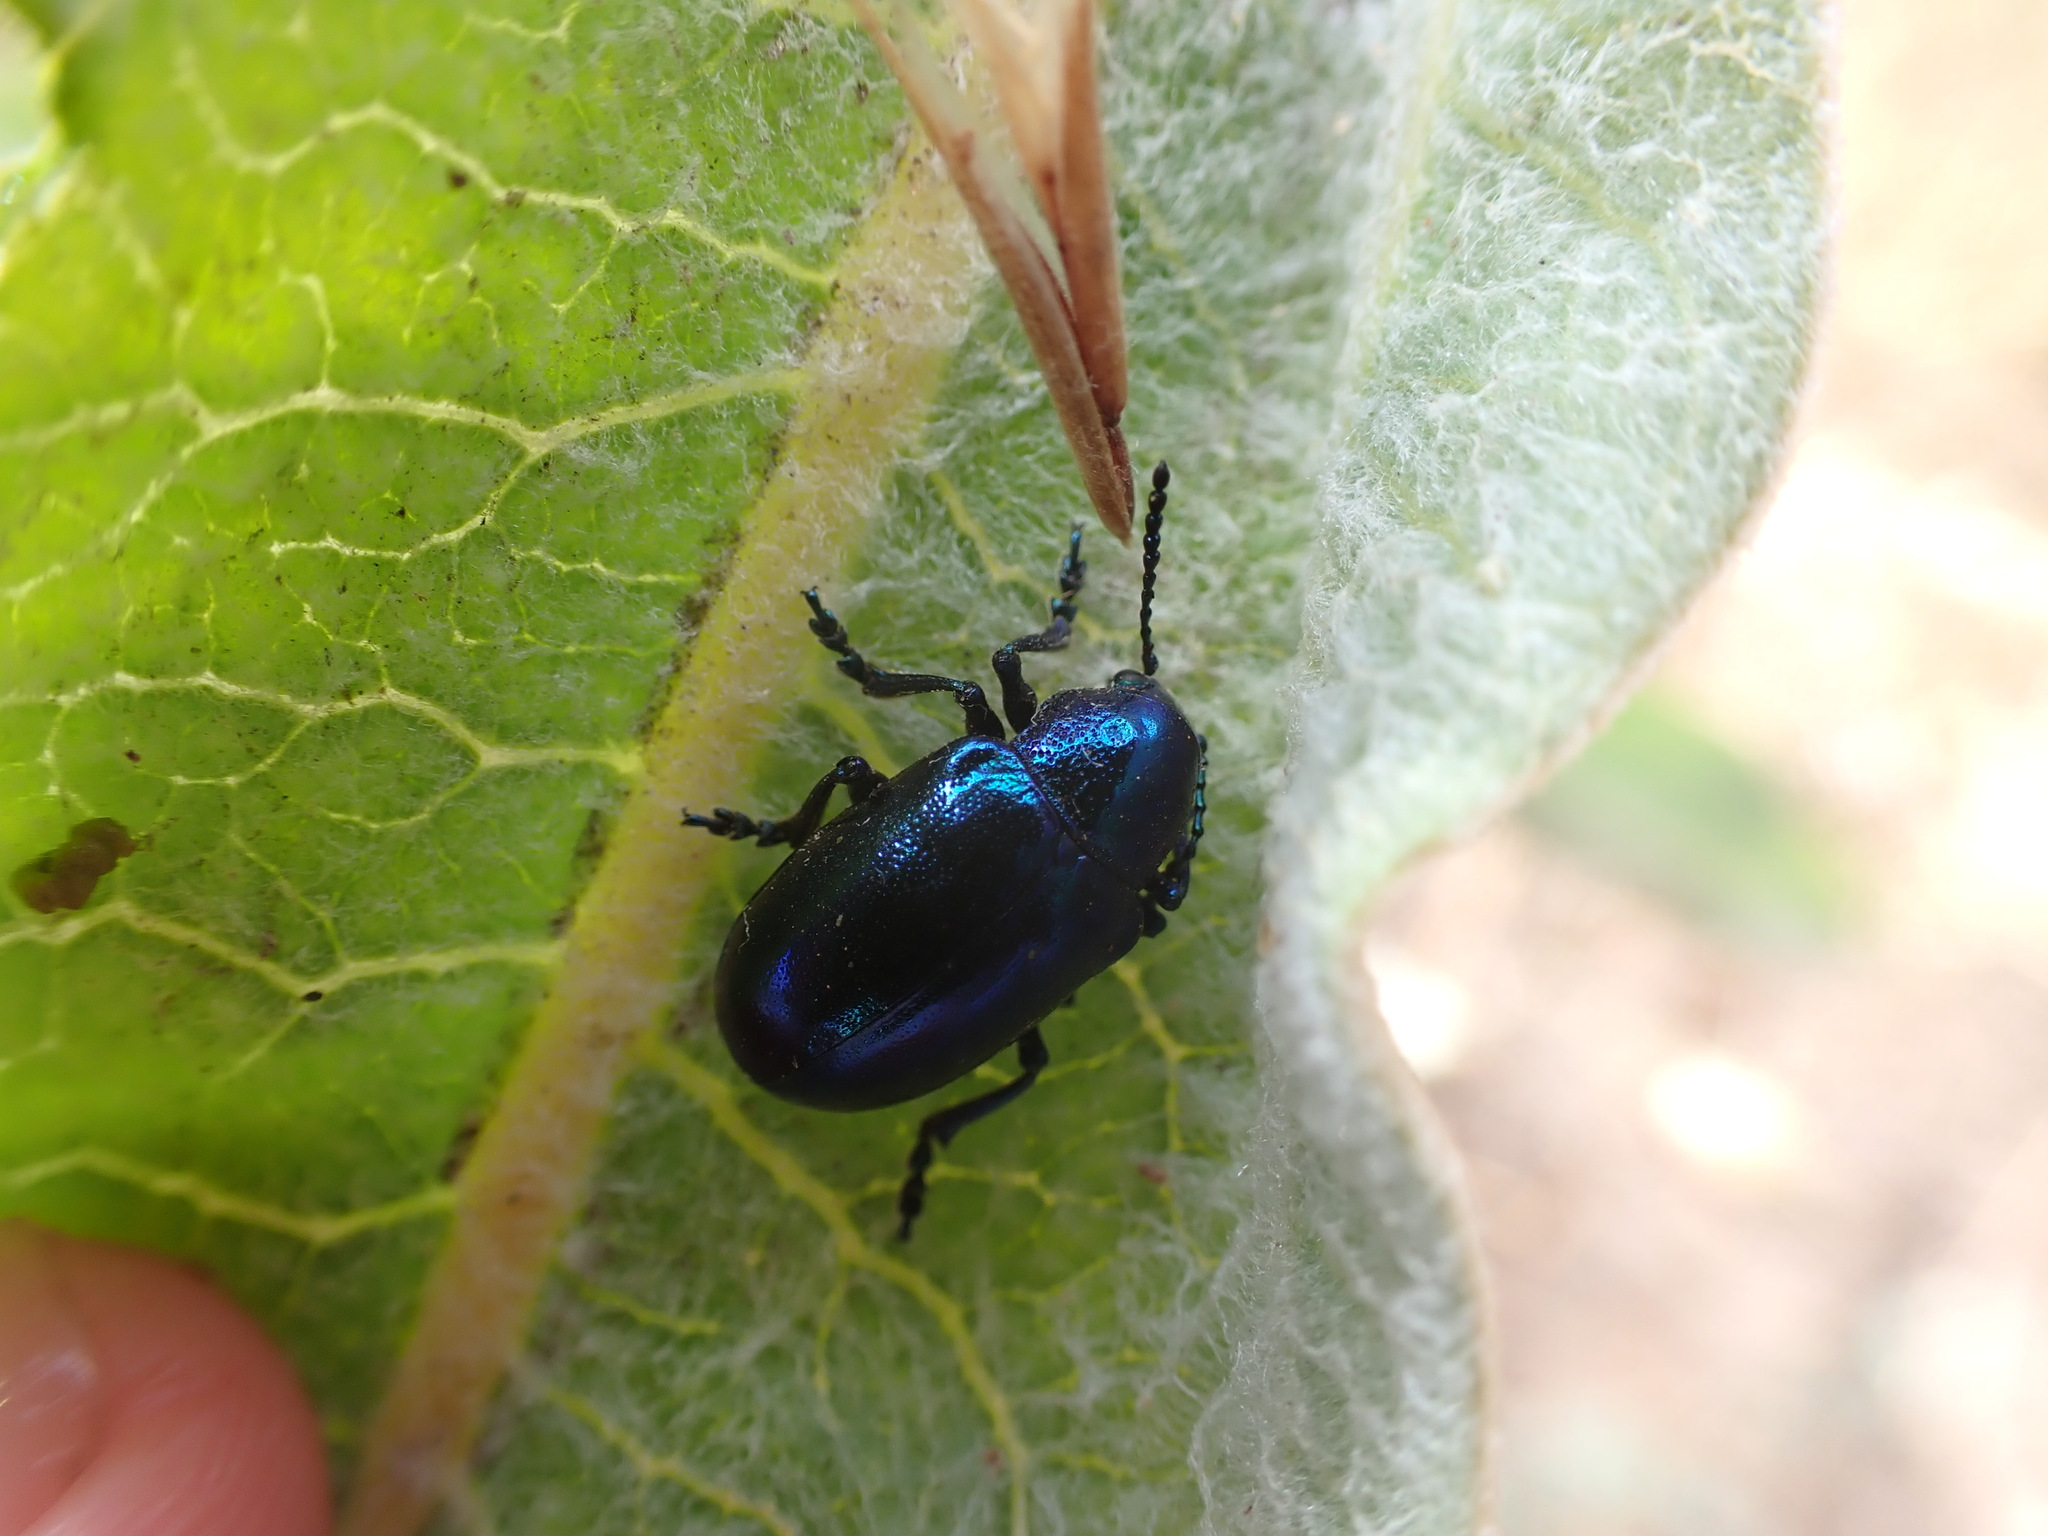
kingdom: Animalia
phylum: Arthropoda
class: Insecta
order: Coleoptera
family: Chrysomelidae
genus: Chrysochus
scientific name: Chrysochus cobaltinus
